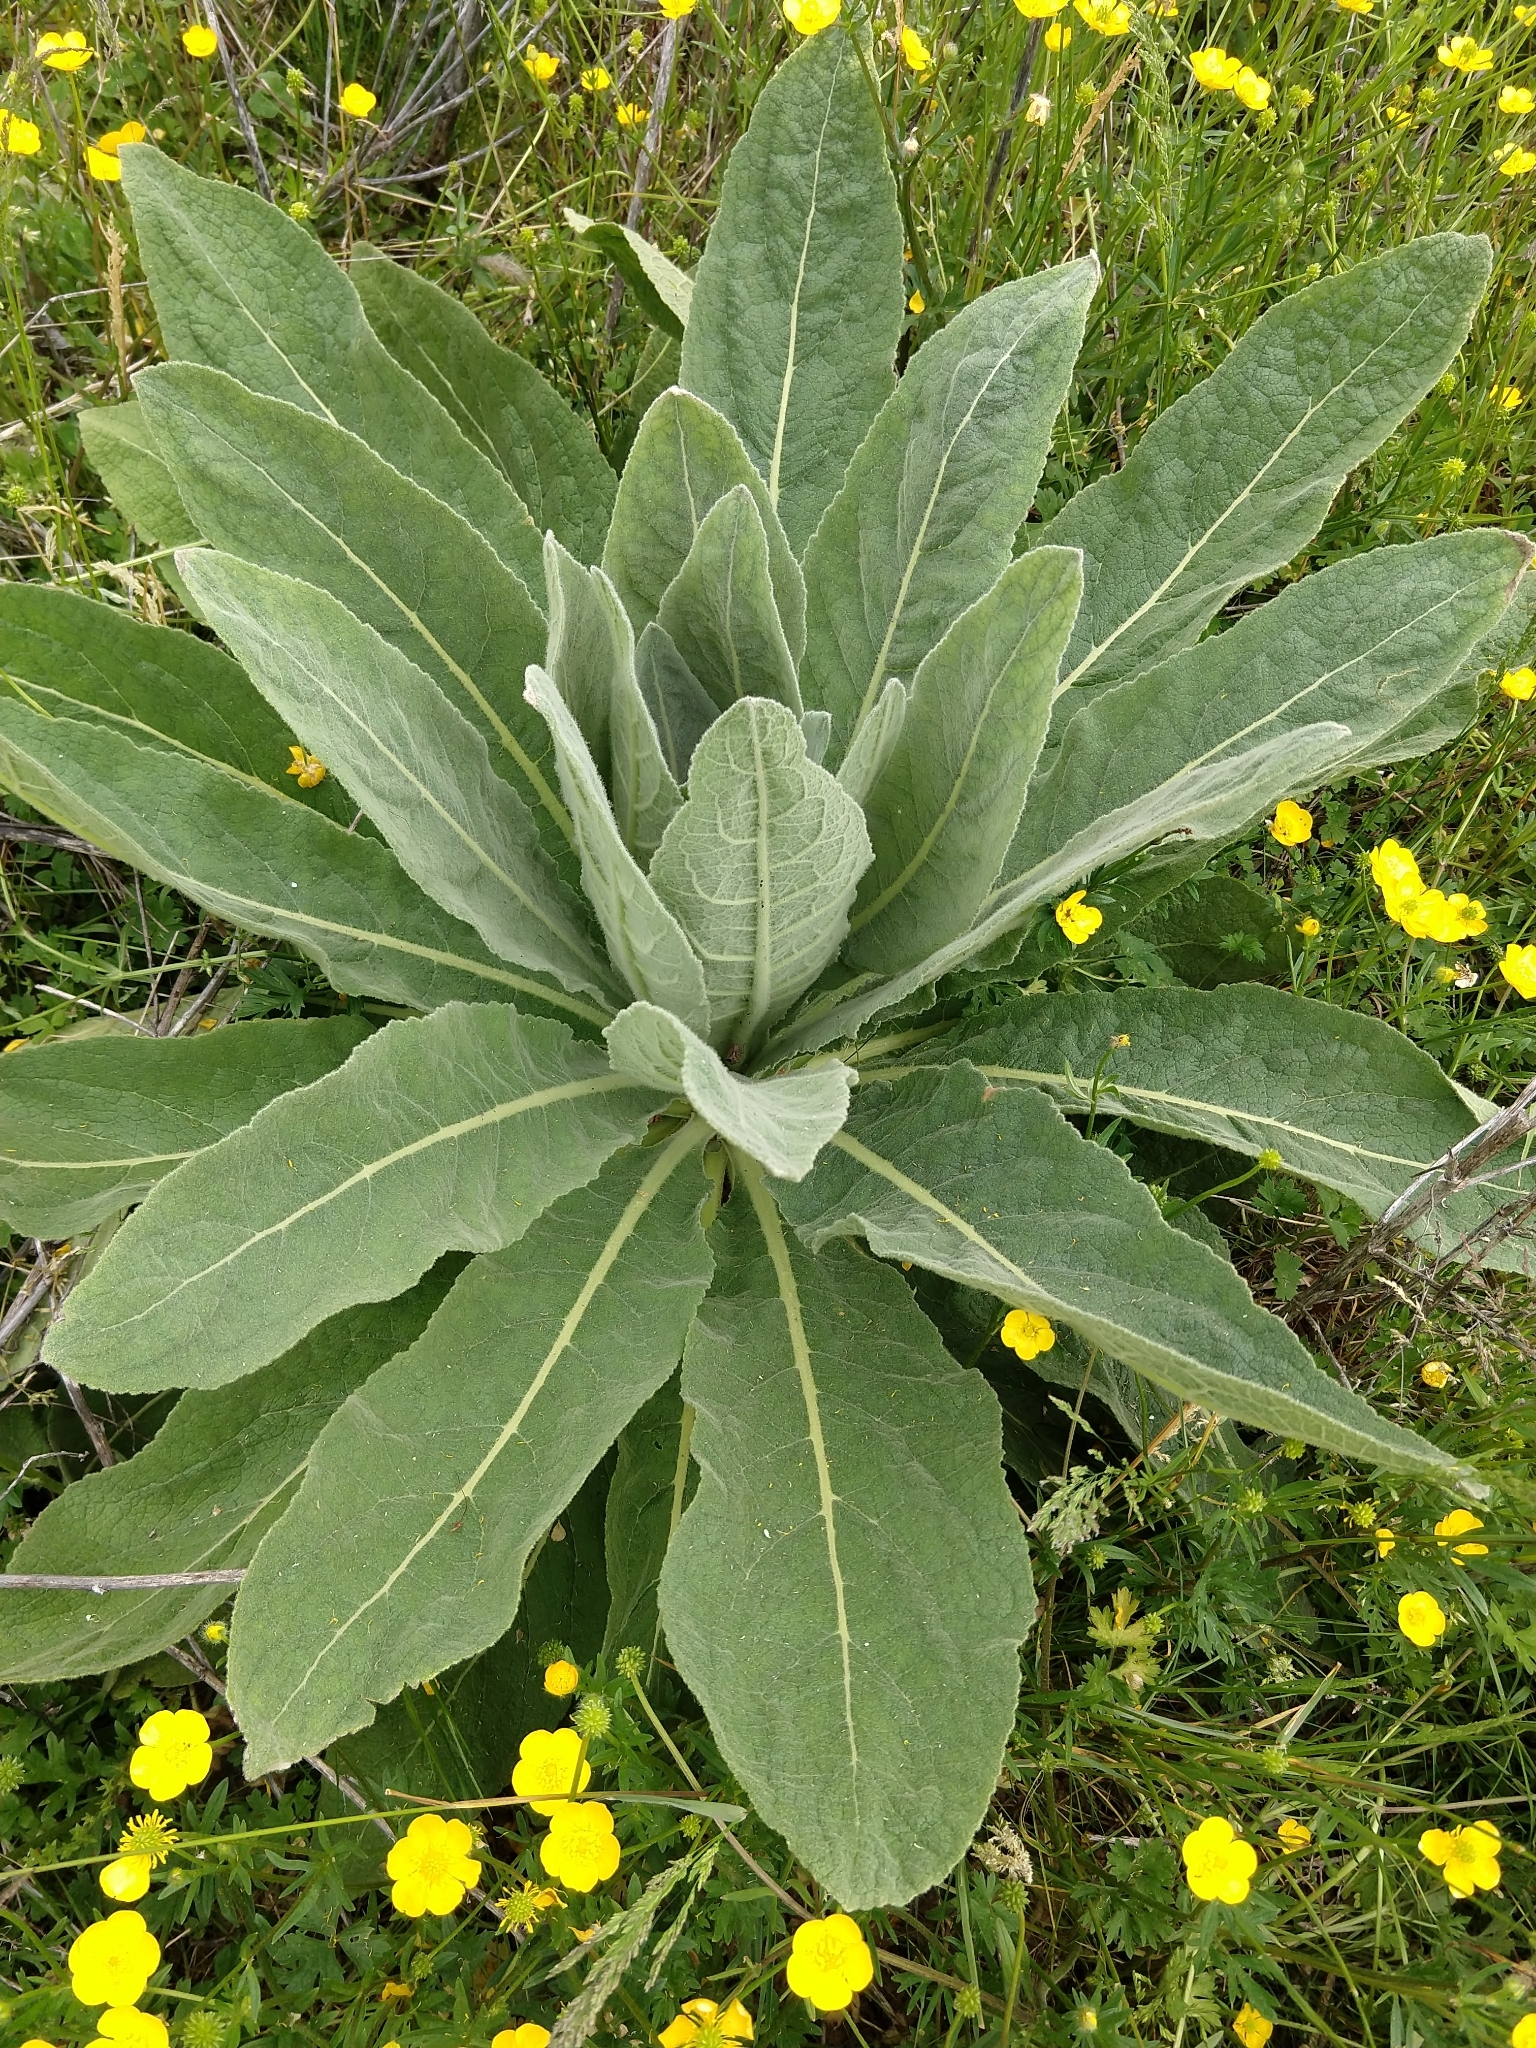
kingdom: Plantae
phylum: Tracheophyta
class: Magnoliopsida
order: Lamiales
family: Scrophulariaceae
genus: Verbascum
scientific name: Verbascum thapsus
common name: Common mullein
